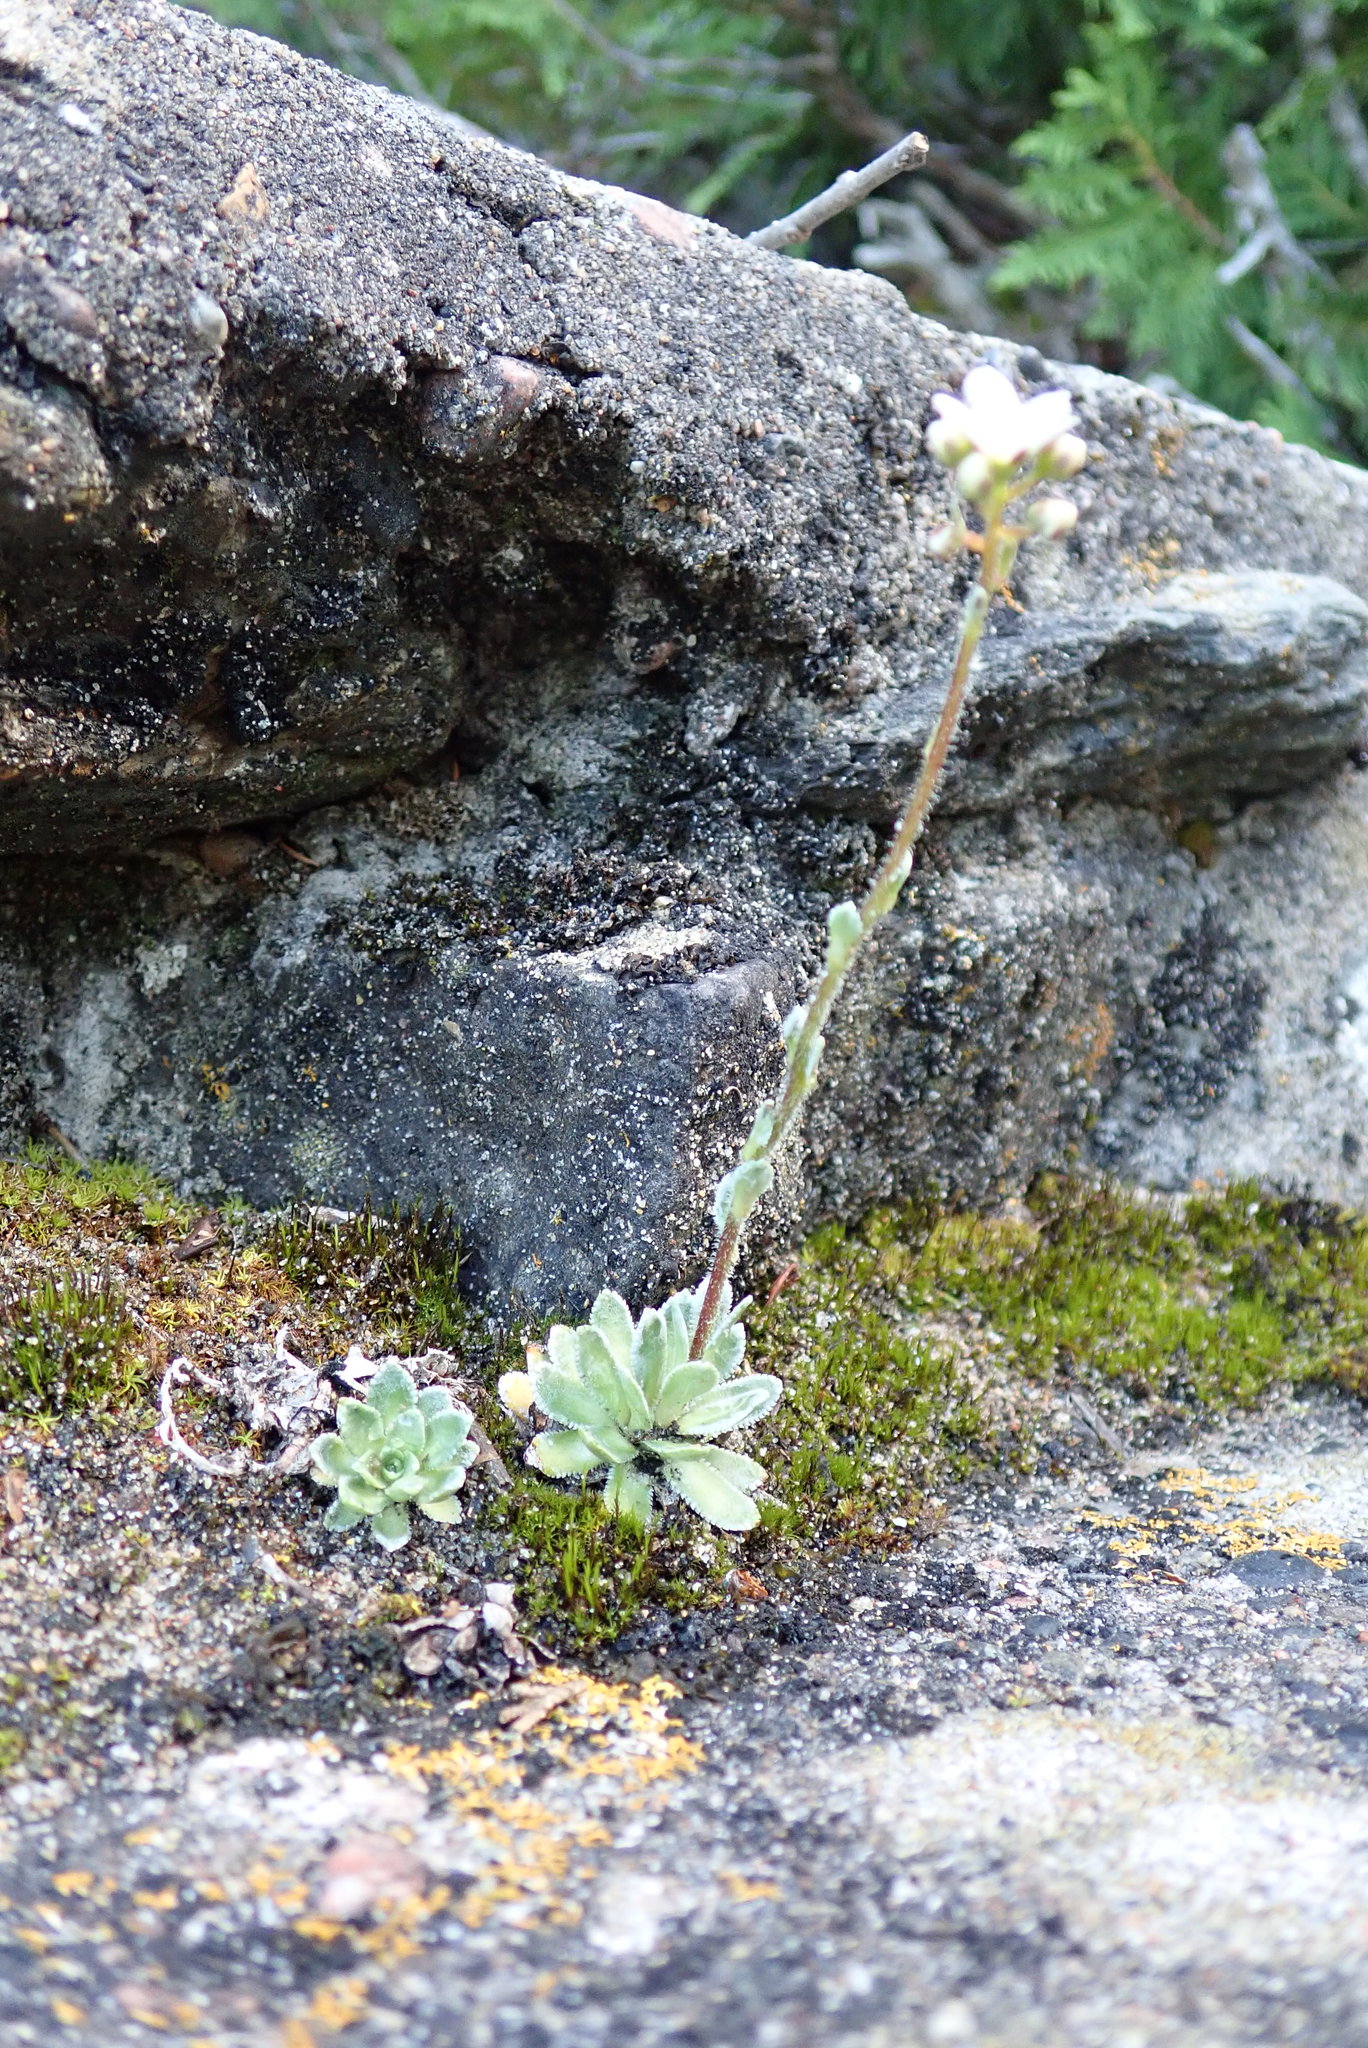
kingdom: Plantae
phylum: Tracheophyta
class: Magnoliopsida
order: Saxifragales
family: Saxifragaceae
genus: Saxifraga
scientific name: Saxifraga paniculata
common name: Livelong saxifrage
